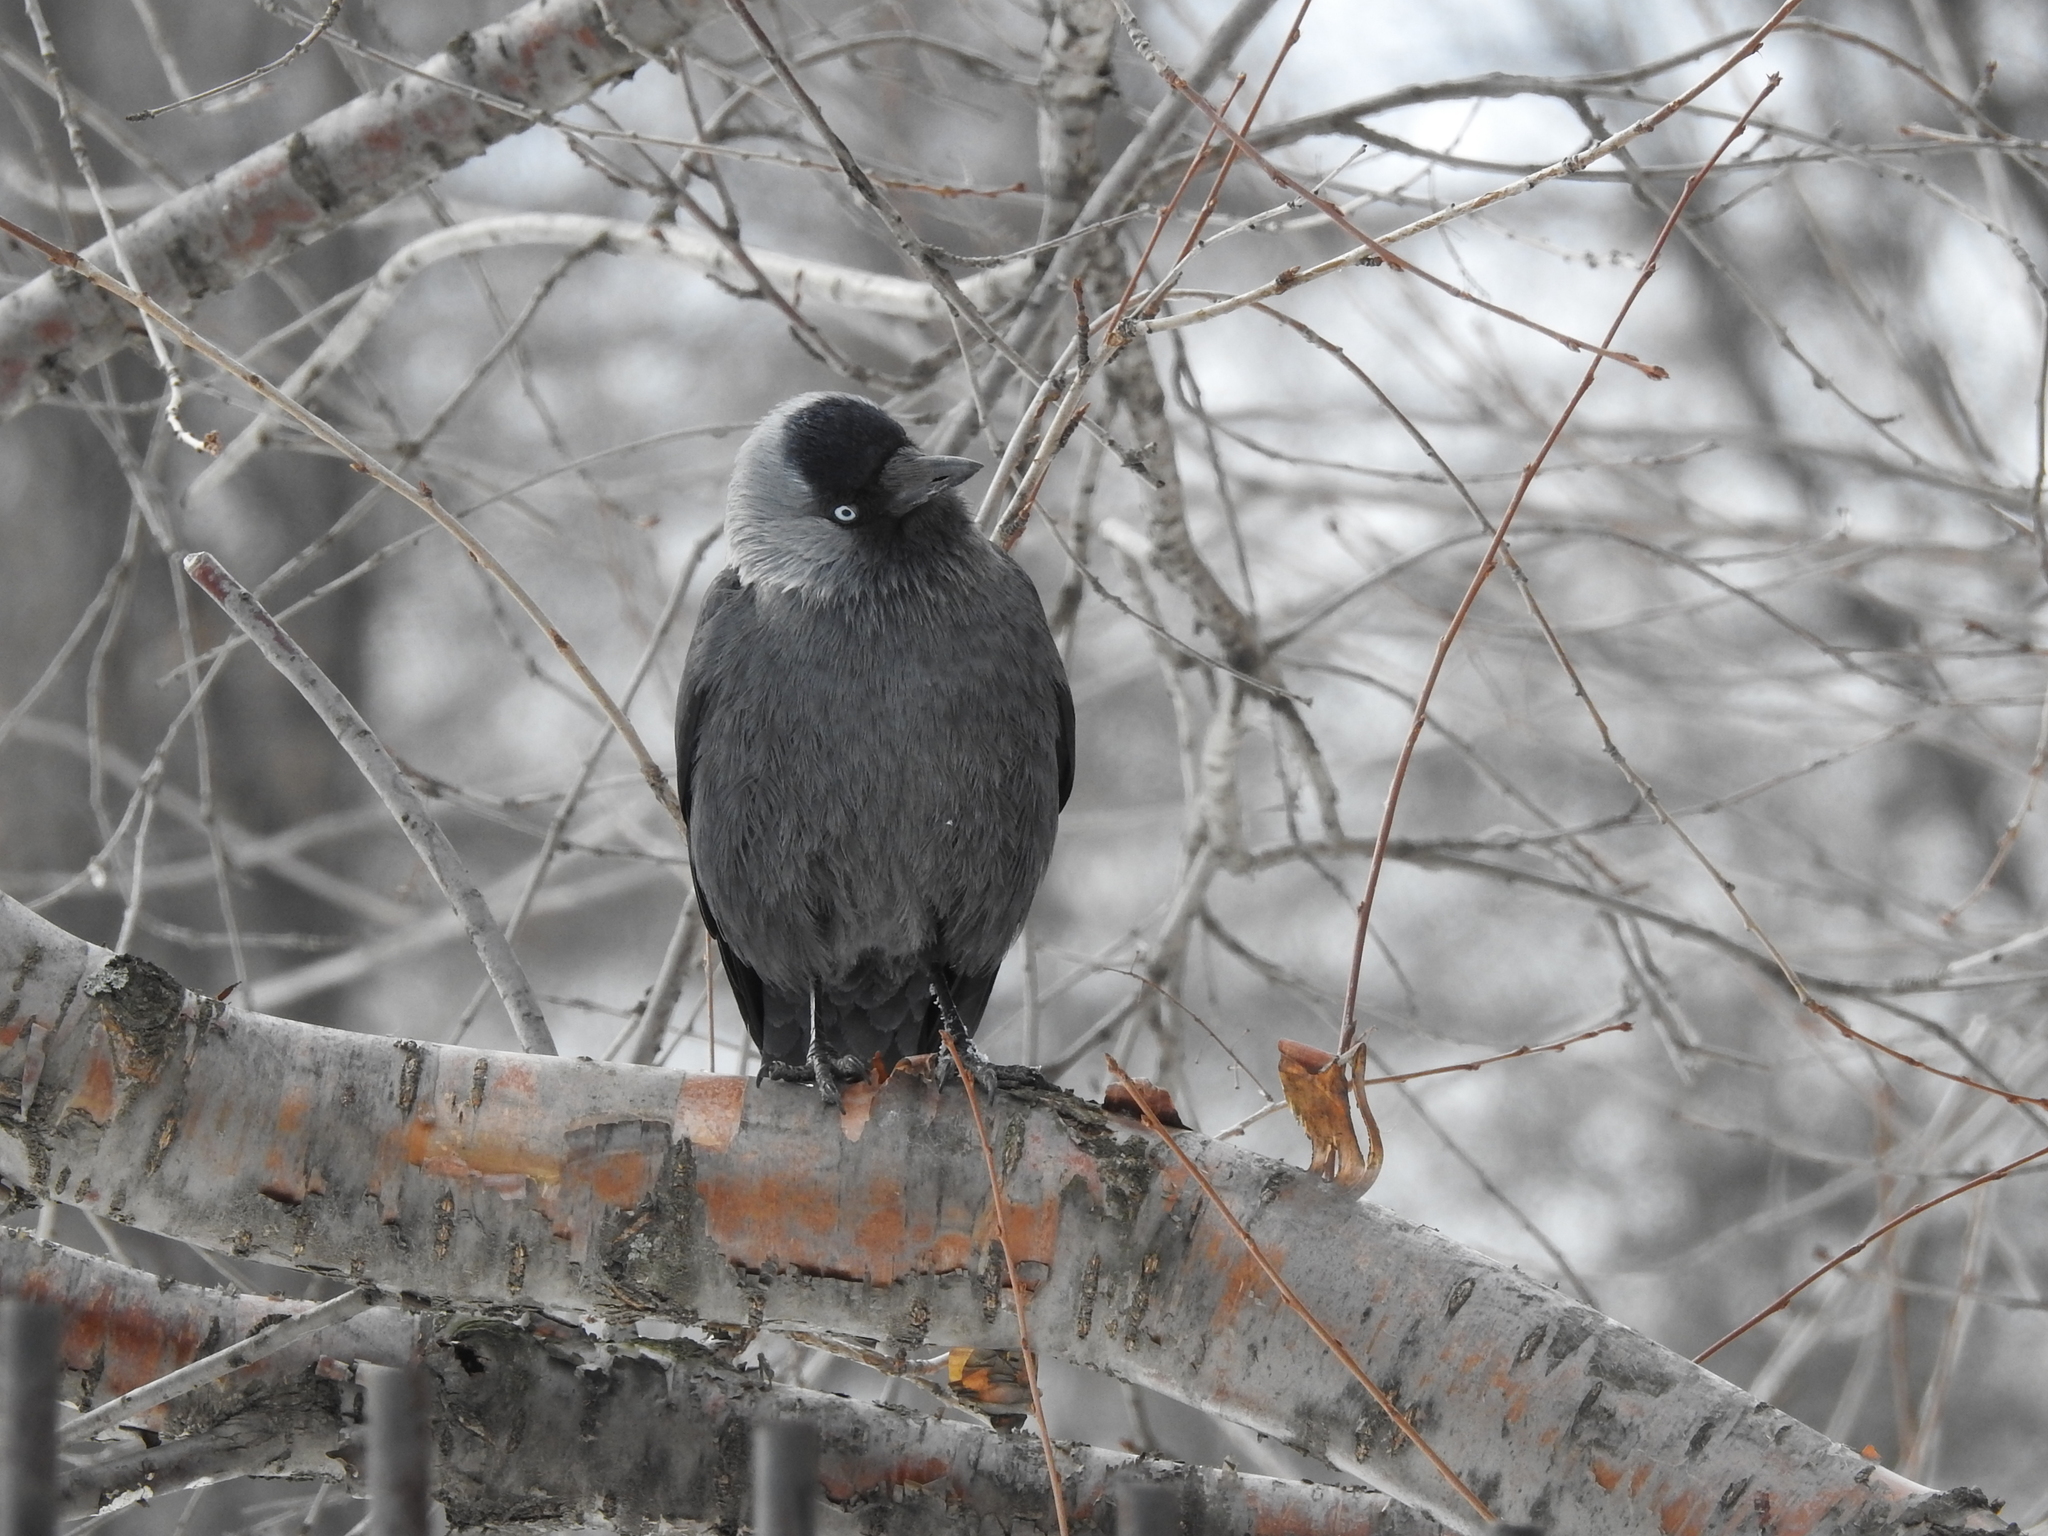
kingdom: Animalia
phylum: Chordata
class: Aves
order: Passeriformes
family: Corvidae
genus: Coloeus
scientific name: Coloeus monedula
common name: Western jackdaw
